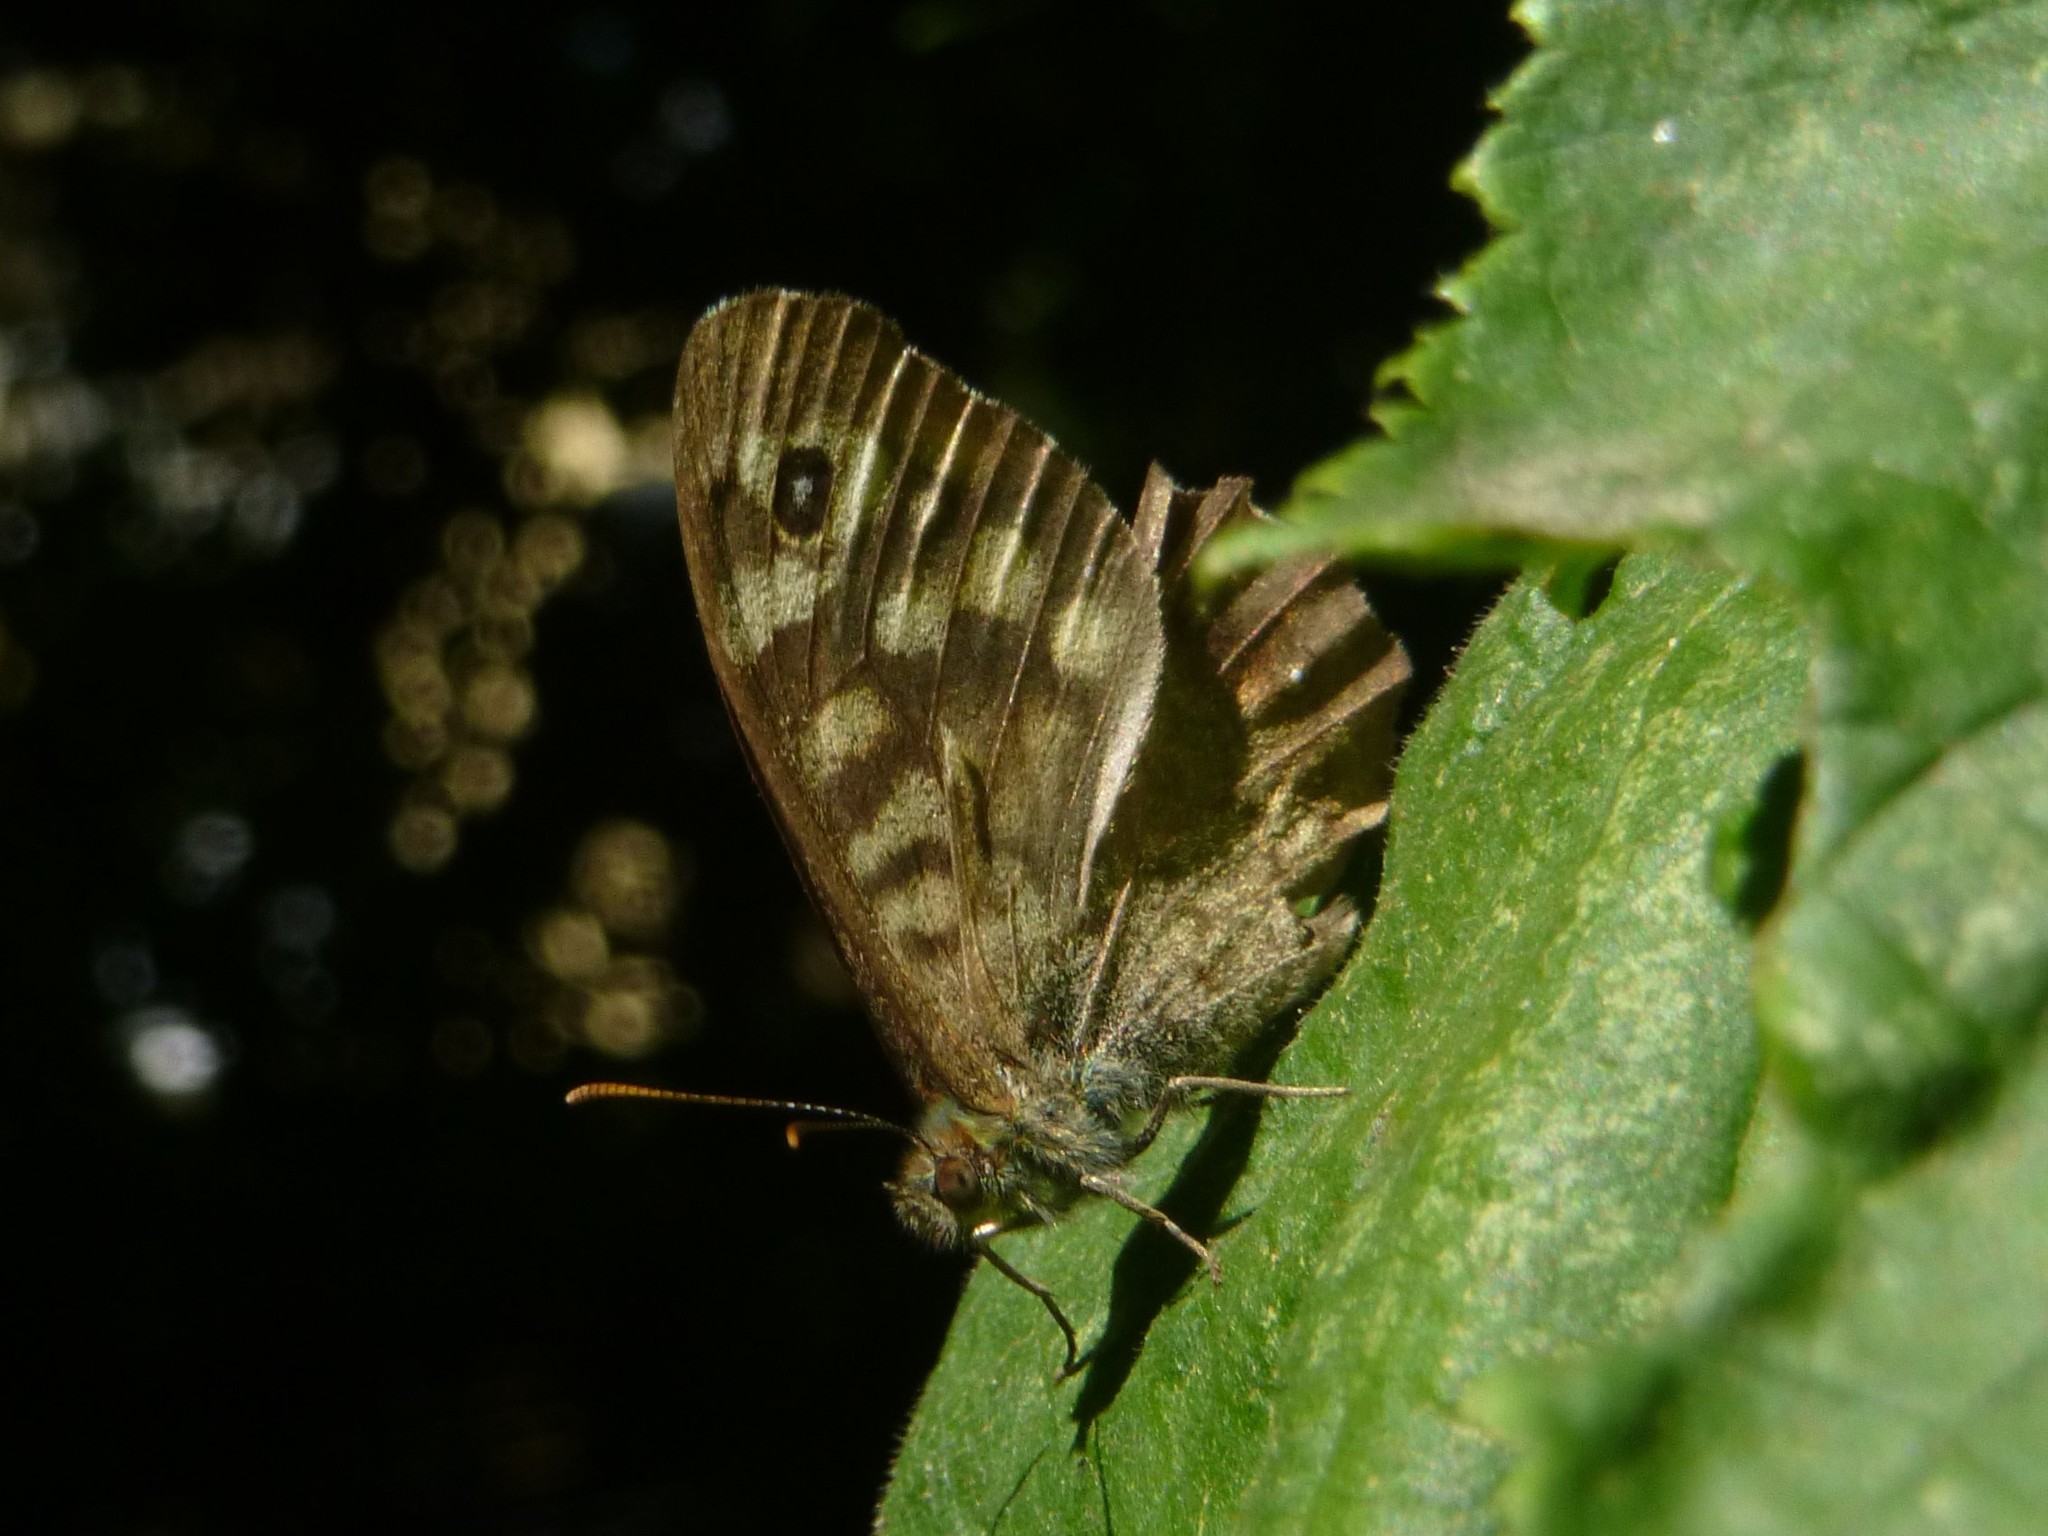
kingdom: Animalia
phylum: Arthropoda
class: Insecta
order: Lepidoptera
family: Nymphalidae
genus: Pararge
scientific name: Pararge aegeria
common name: Speckled wood
